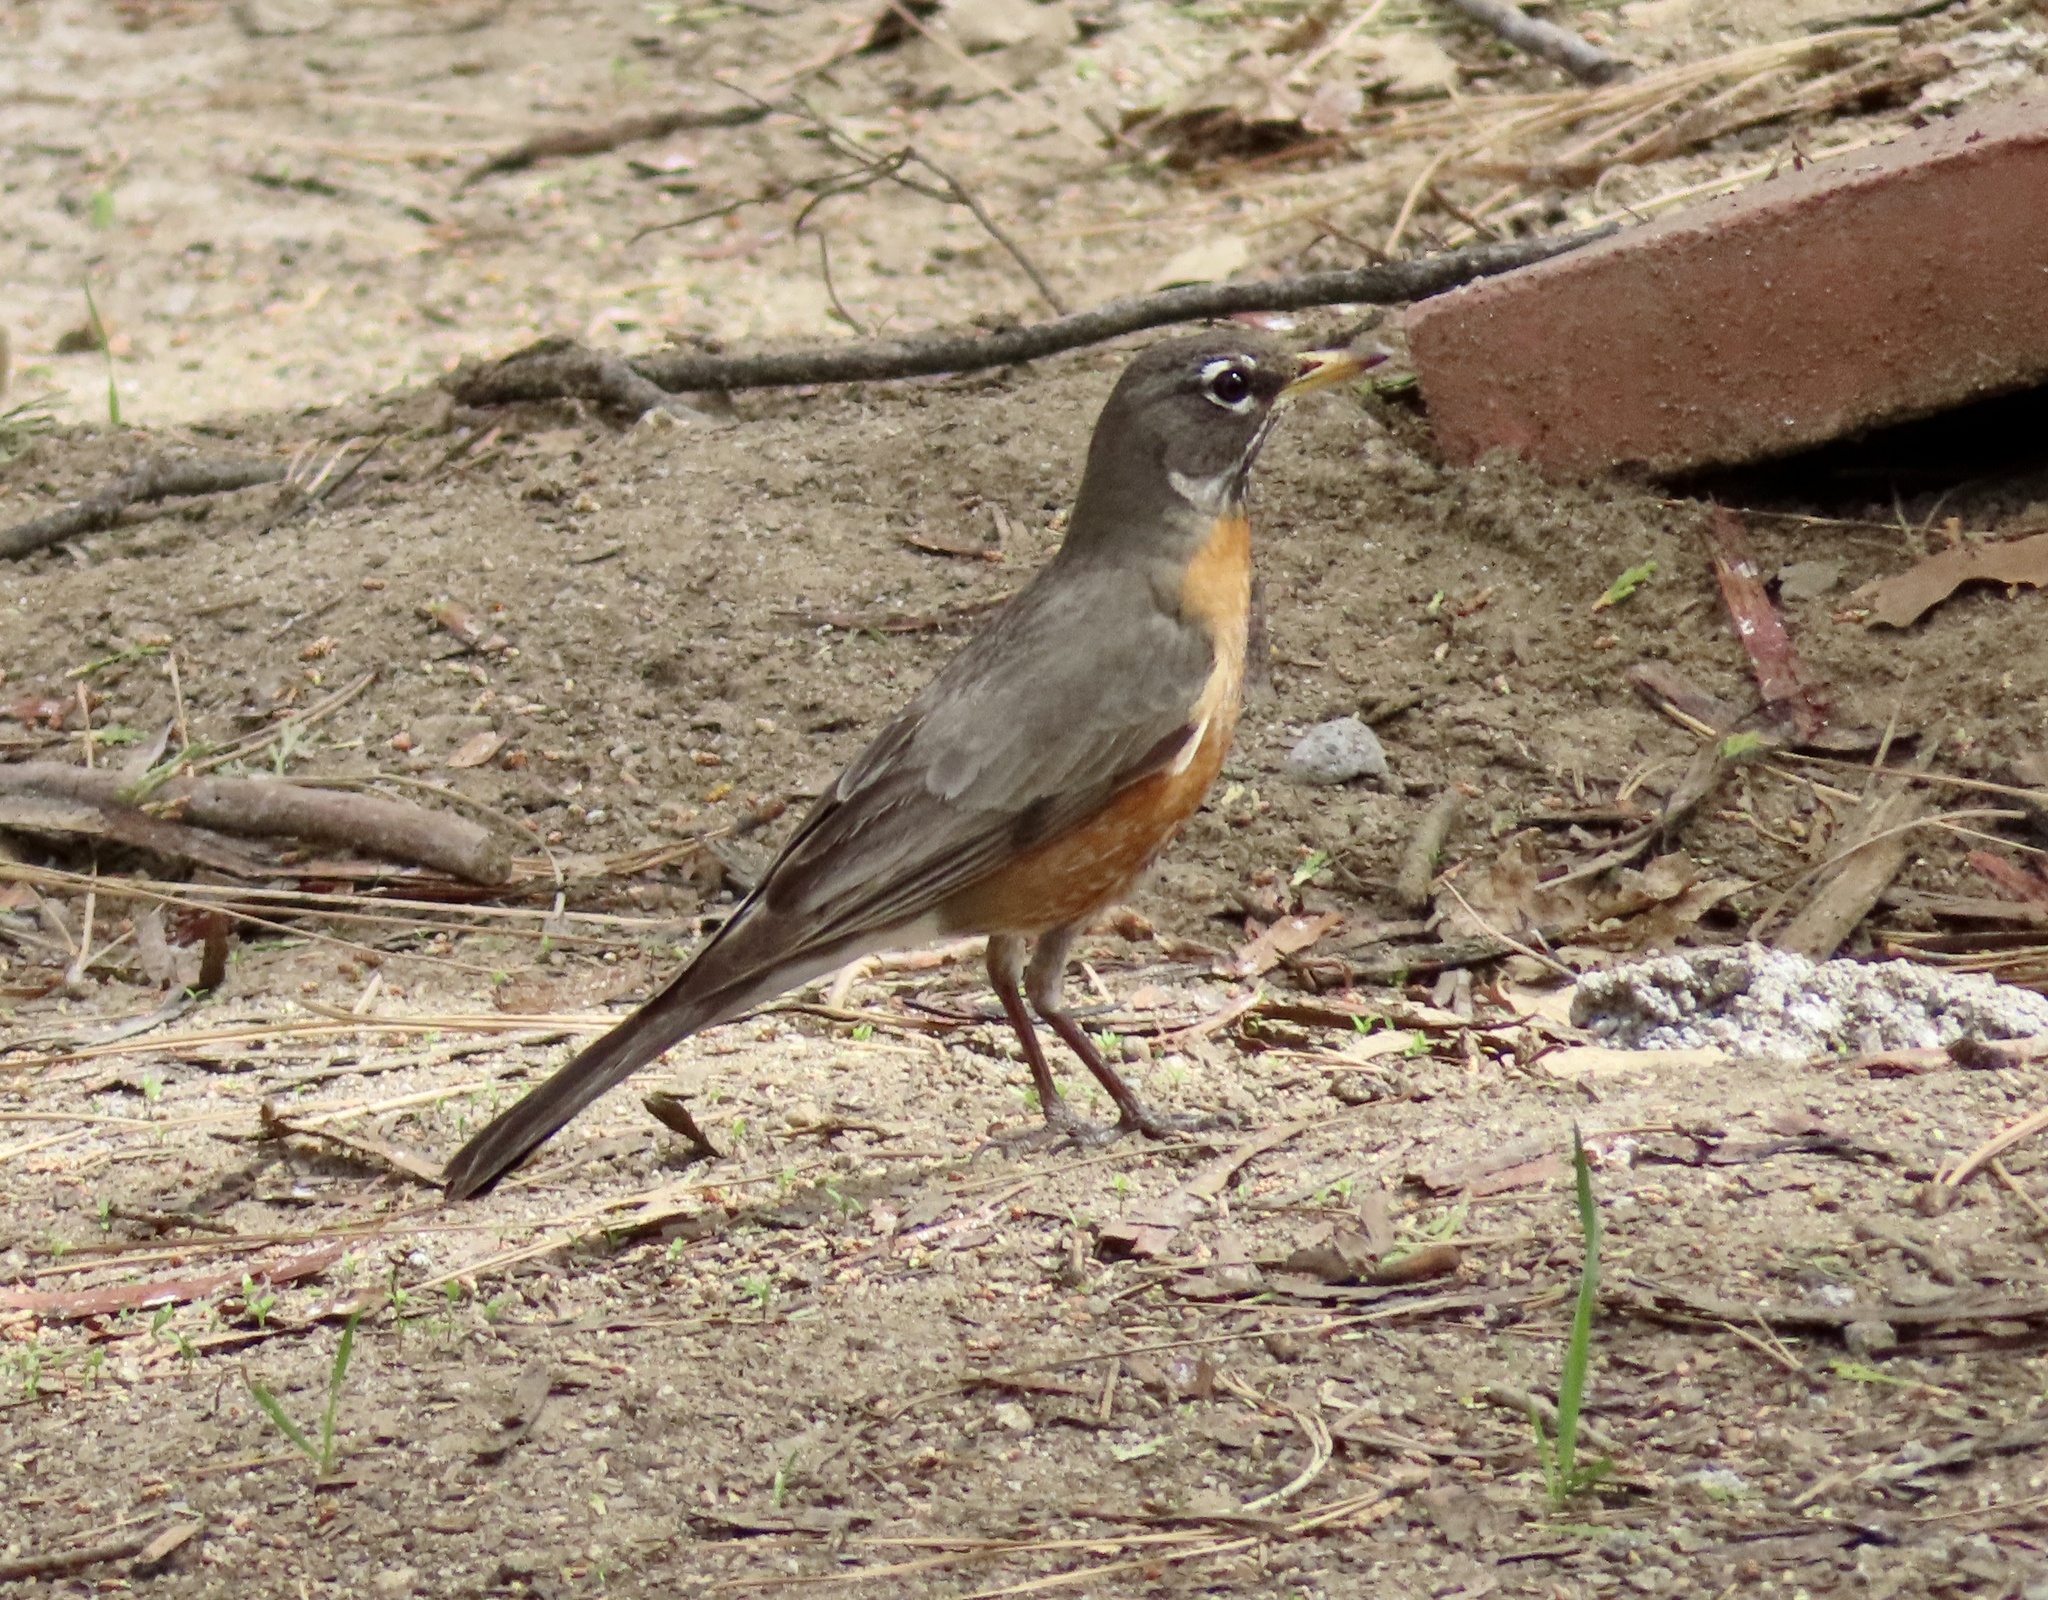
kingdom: Animalia
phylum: Chordata
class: Aves
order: Passeriformes
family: Turdidae
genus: Turdus
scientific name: Turdus migratorius
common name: American robin
